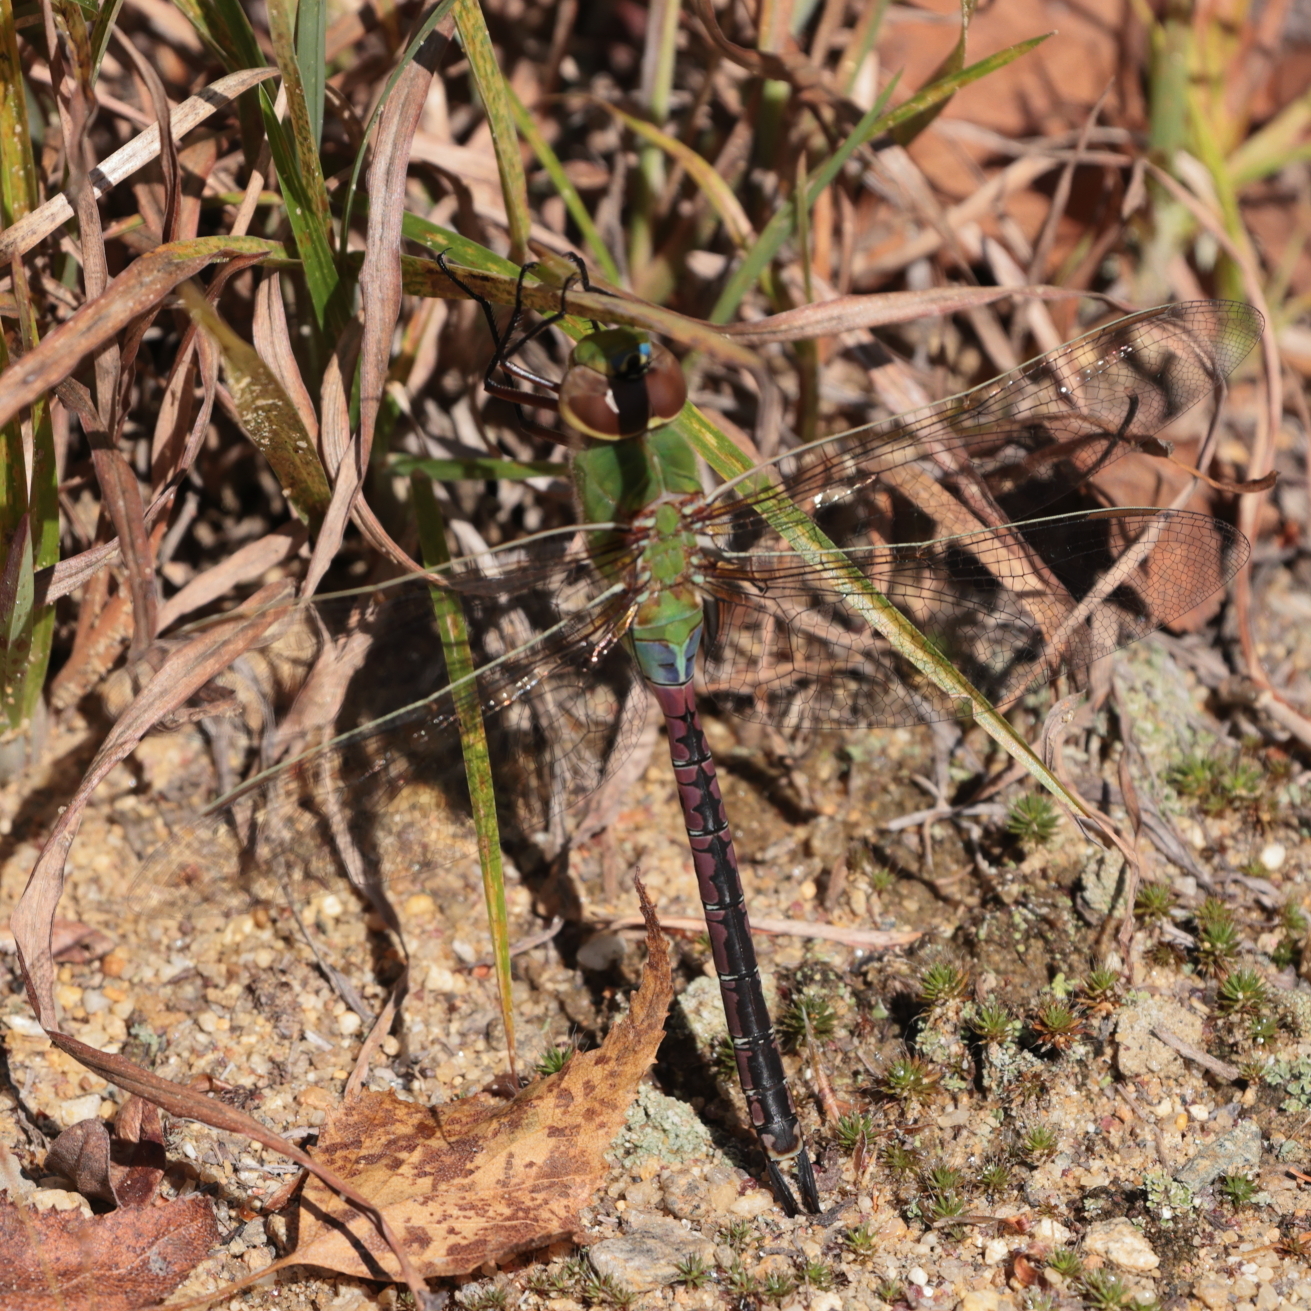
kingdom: Animalia
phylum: Arthropoda
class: Insecta
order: Odonata
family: Aeshnidae
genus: Anax
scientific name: Anax junius
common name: Common green darner
